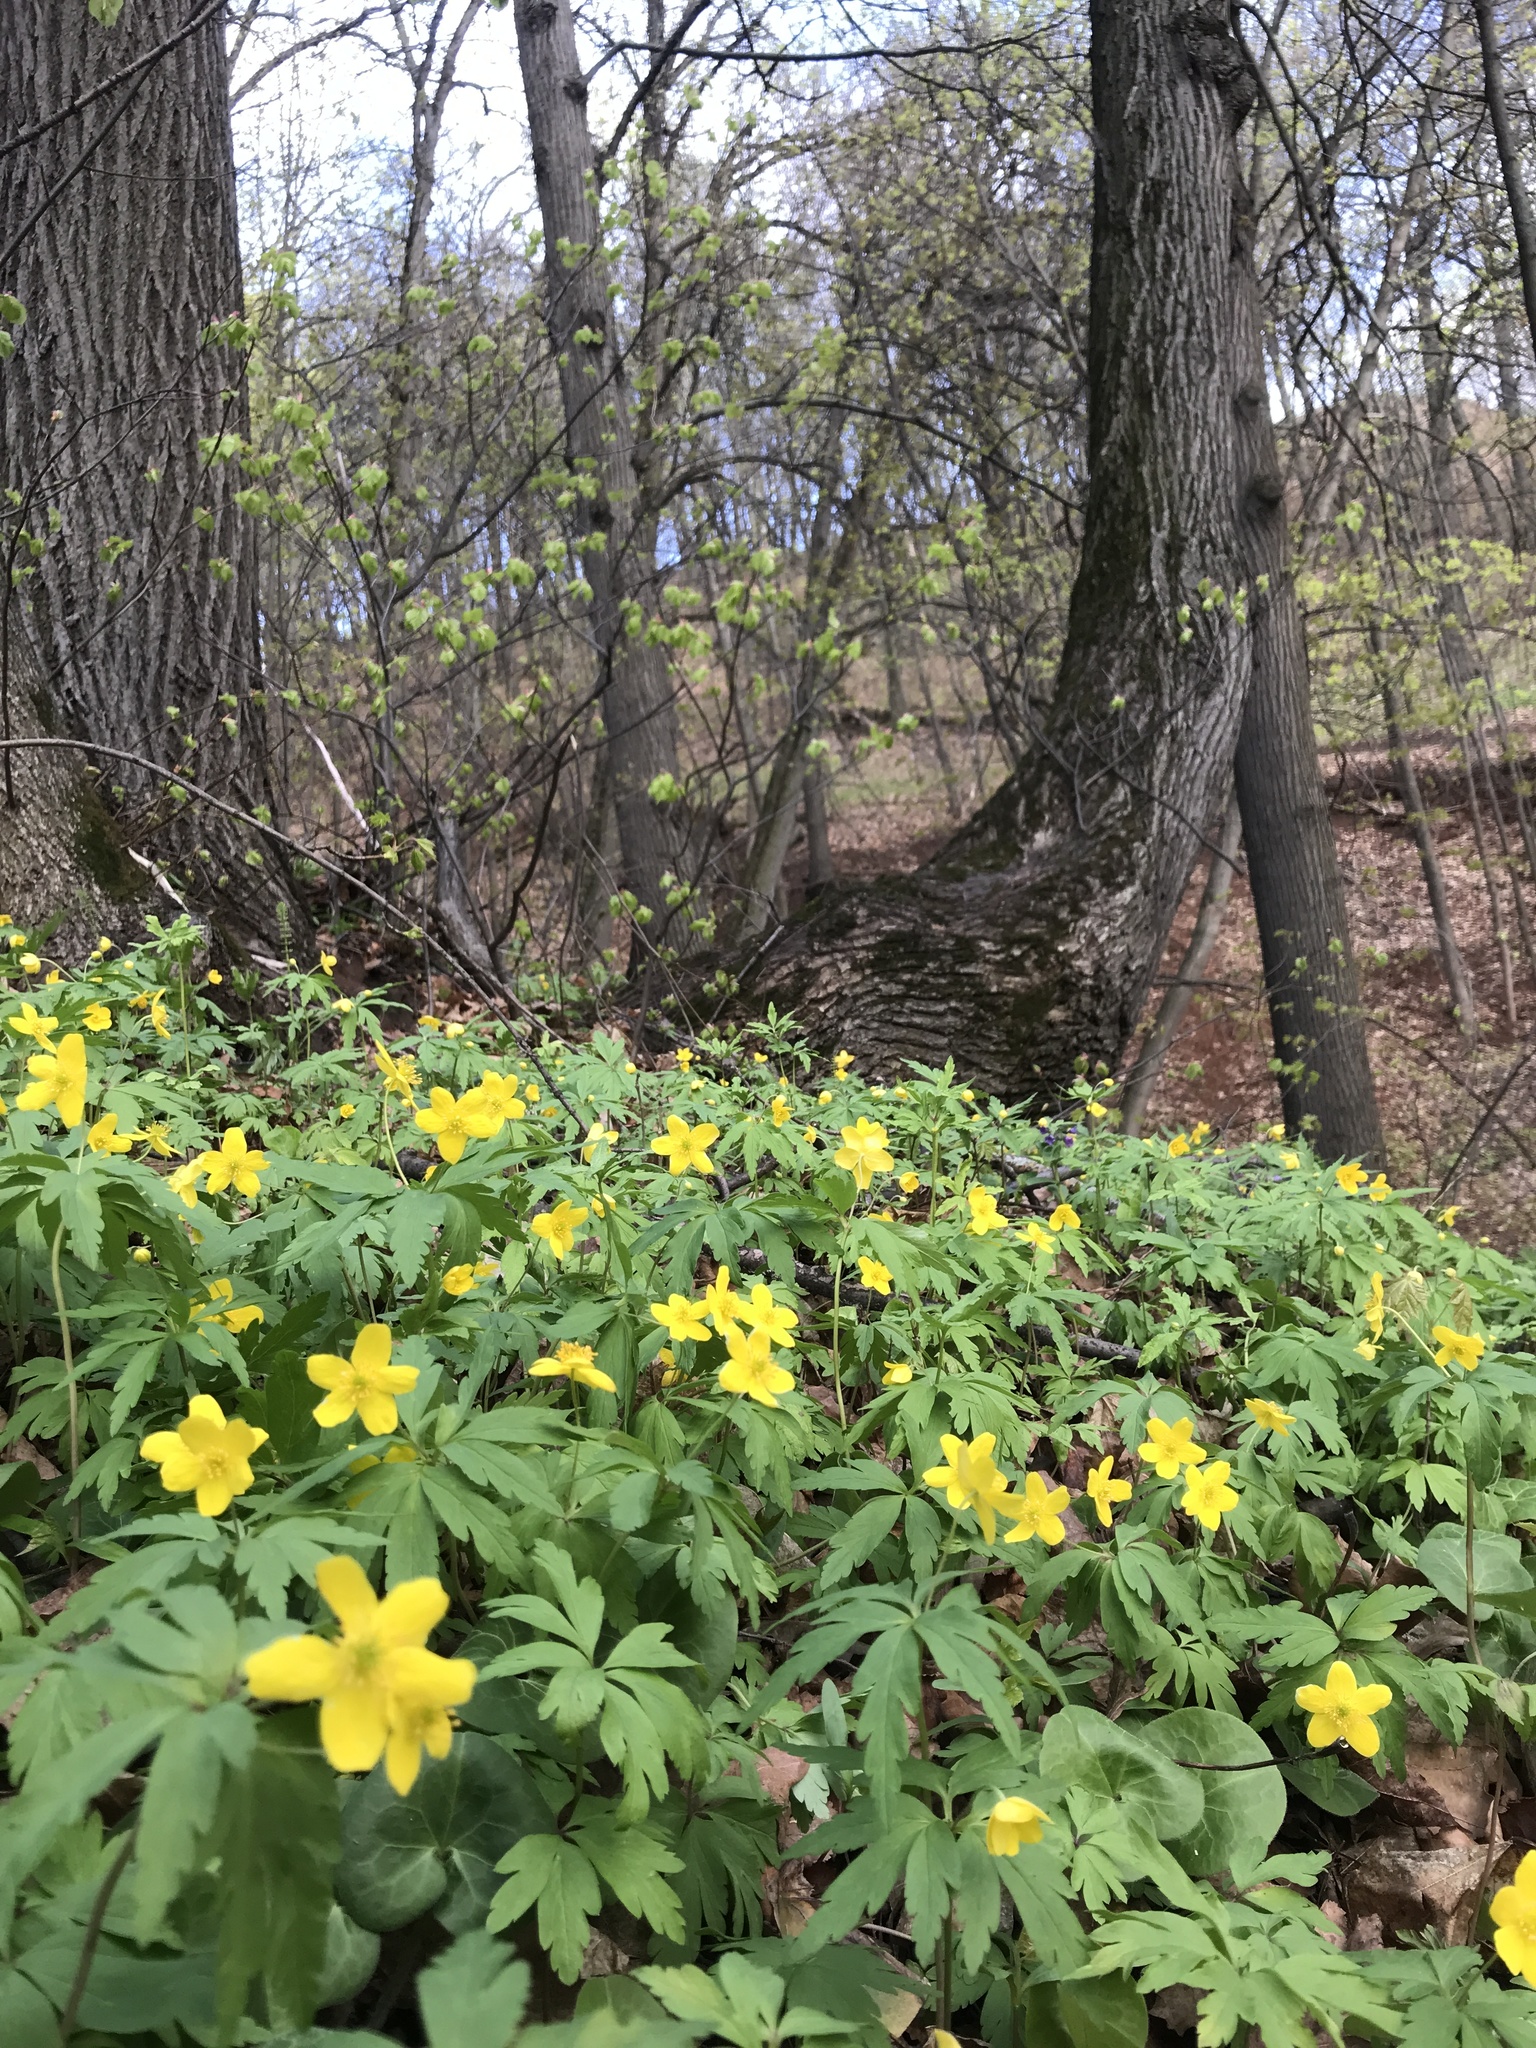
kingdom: Plantae
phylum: Tracheophyta
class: Magnoliopsida
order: Ranunculales
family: Ranunculaceae
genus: Anemone
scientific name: Anemone ranunculoides
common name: Yellow anemone
